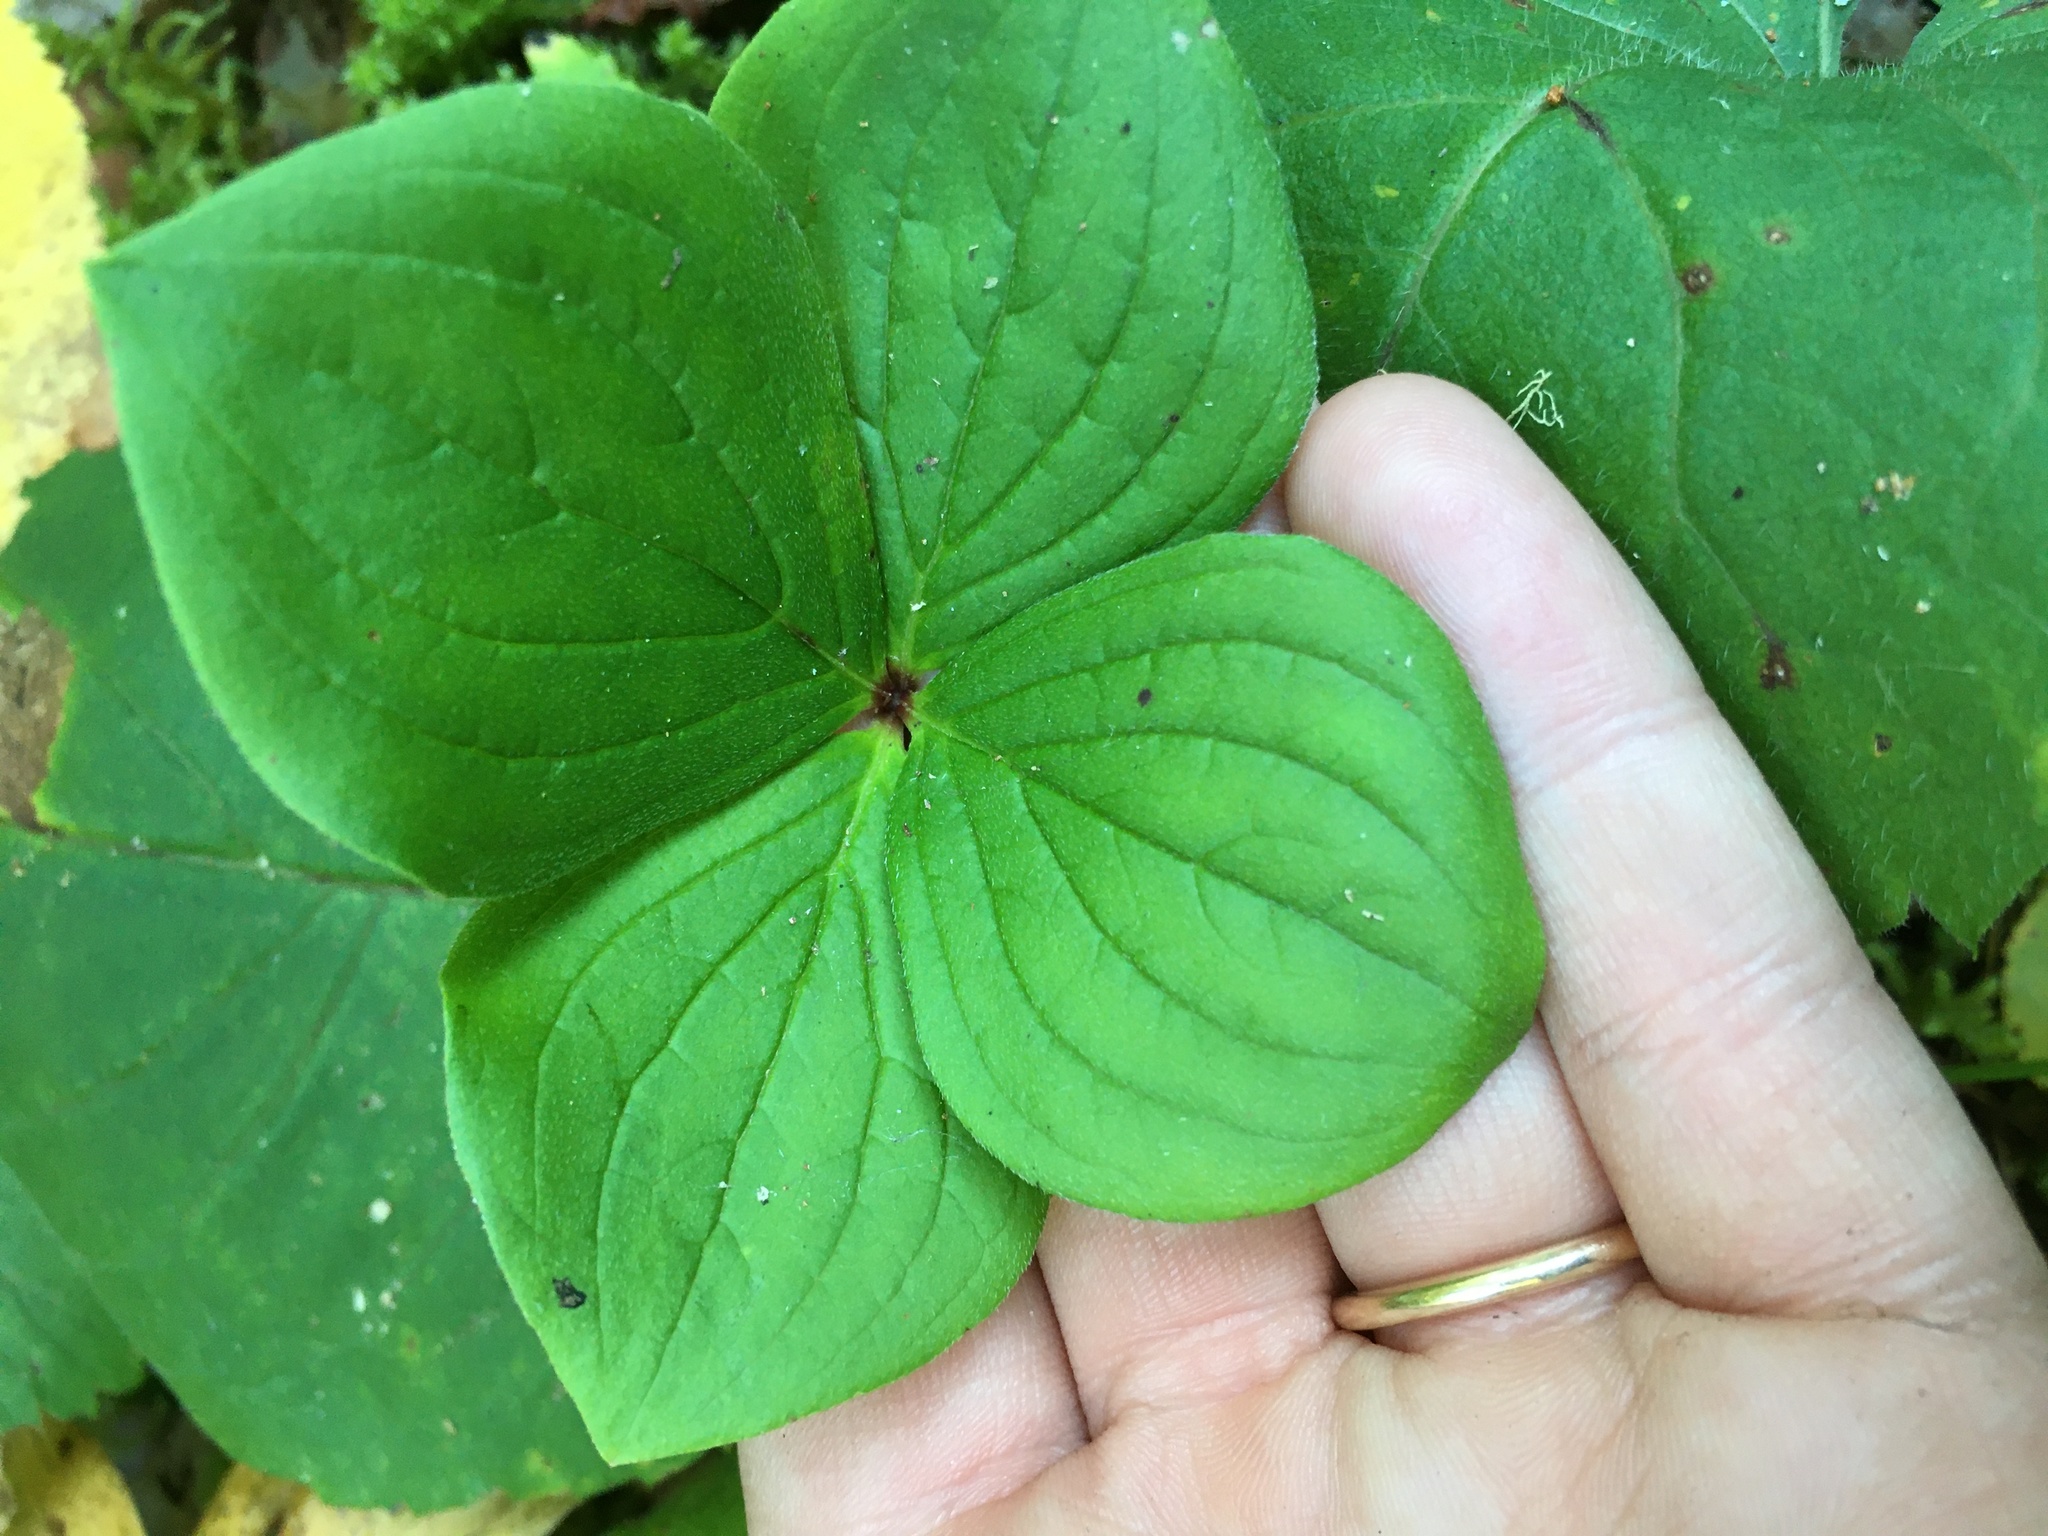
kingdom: Plantae
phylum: Tracheophyta
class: Magnoliopsida
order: Cornales
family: Cornaceae
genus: Cornus
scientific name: Cornus canadensis
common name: Creeping dogwood
